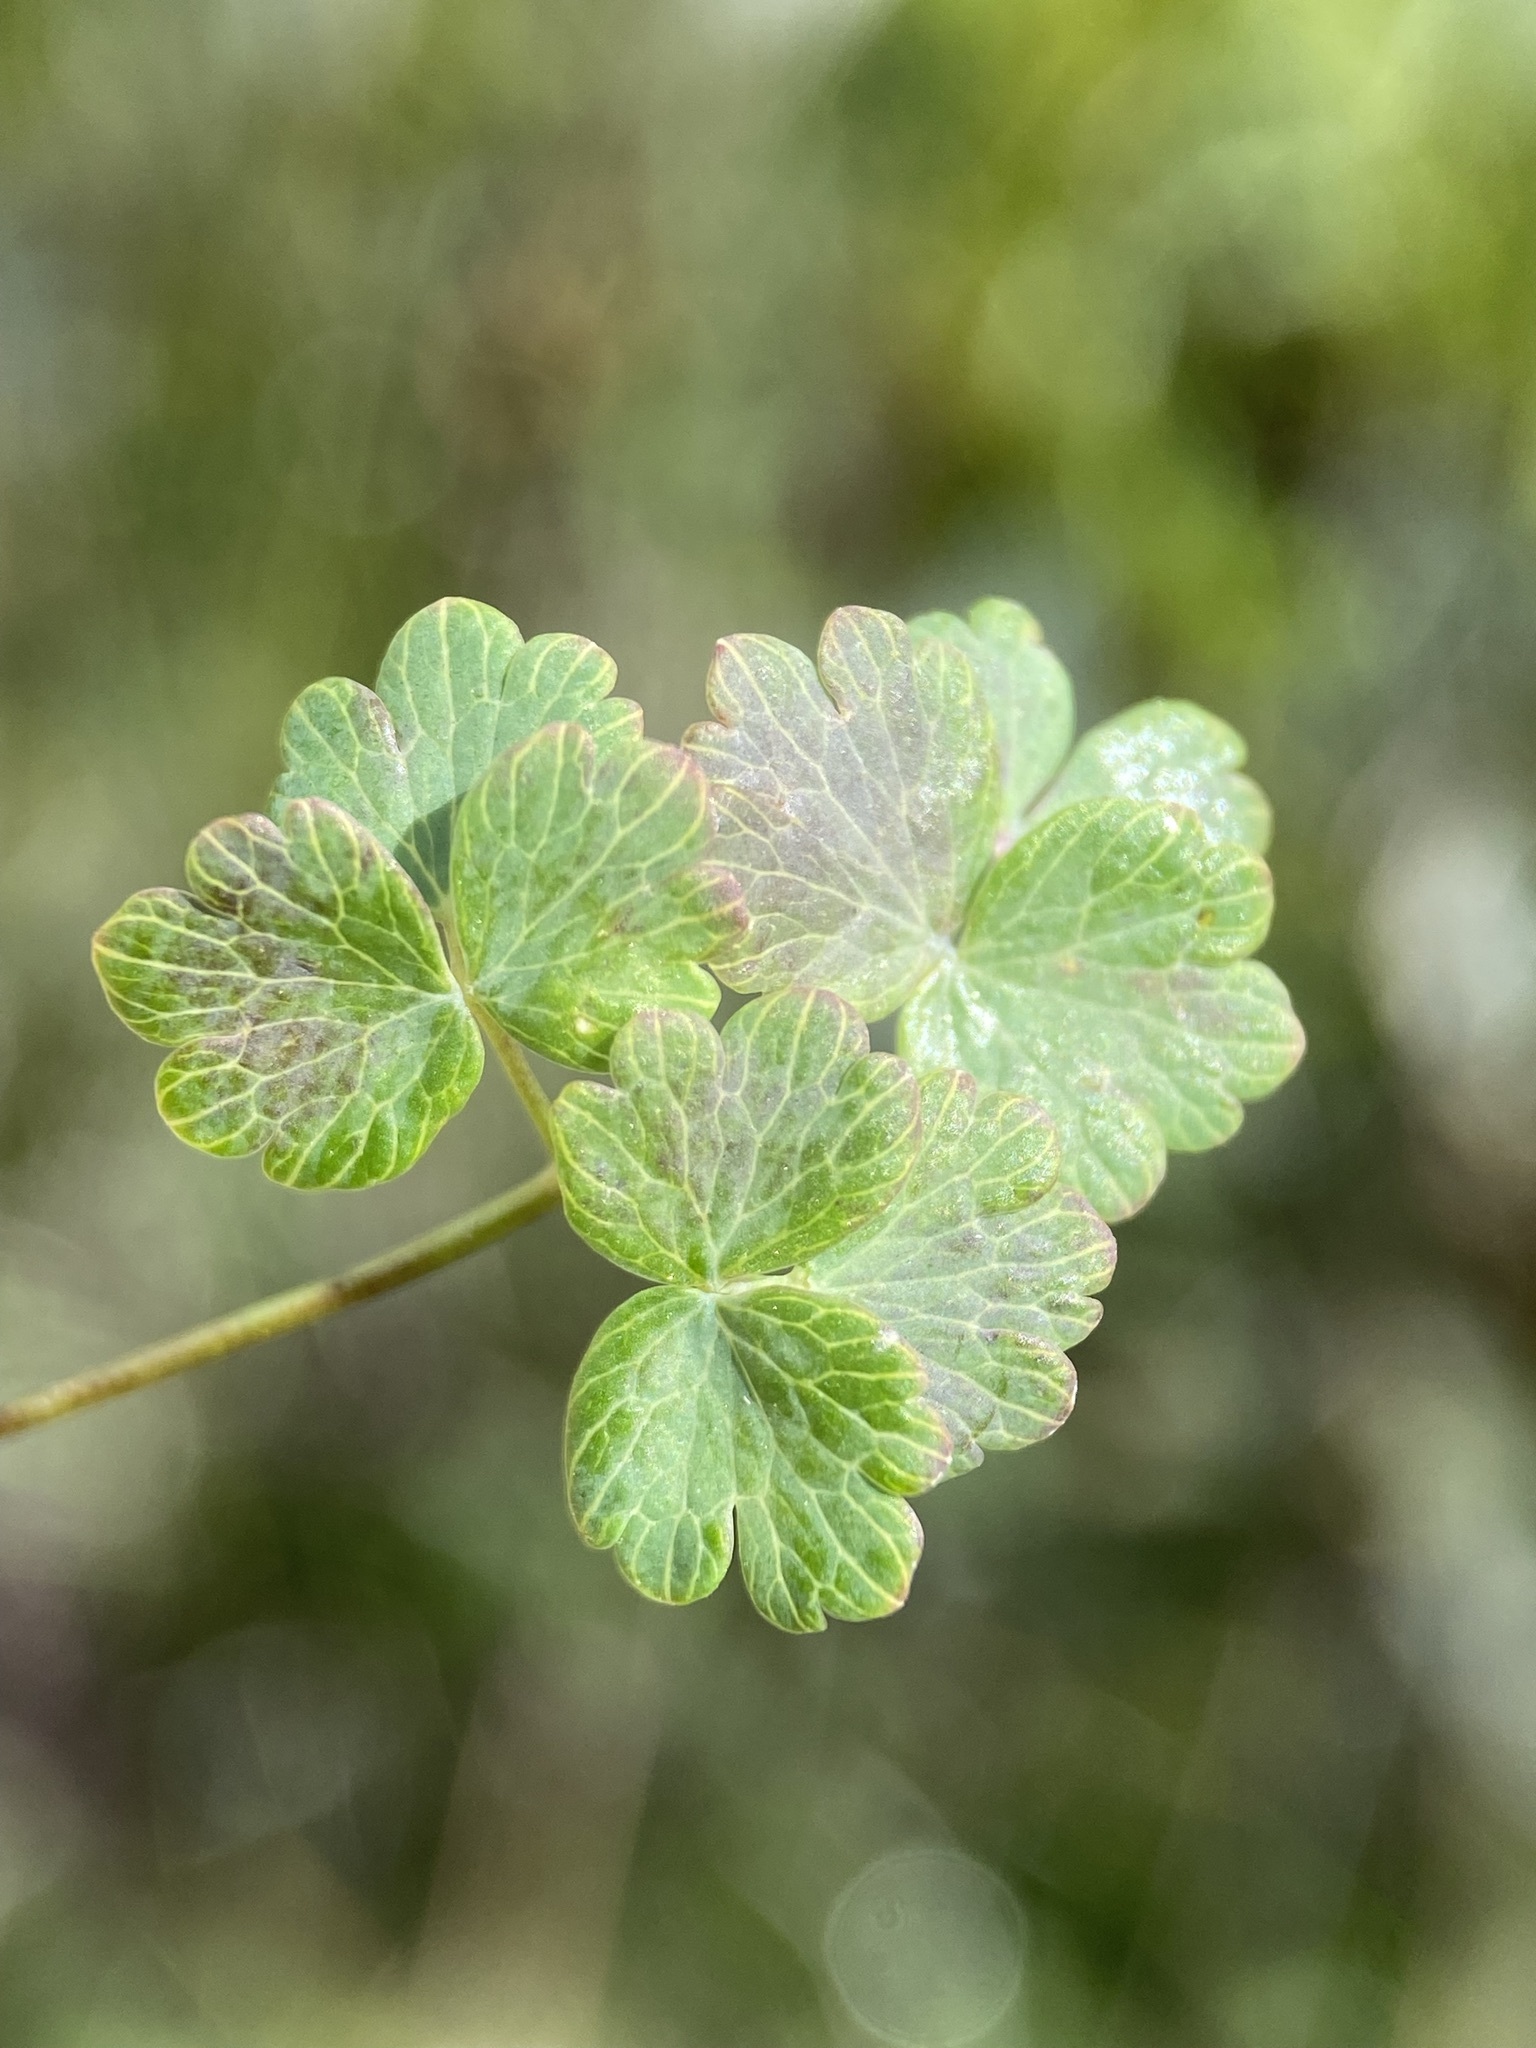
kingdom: Plantae
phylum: Tracheophyta
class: Magnoliopsida
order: Ranunculales
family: Ranunculaceae
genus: Thalictrum
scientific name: Thalictrum alpinum
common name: Alpine meadow-rue
